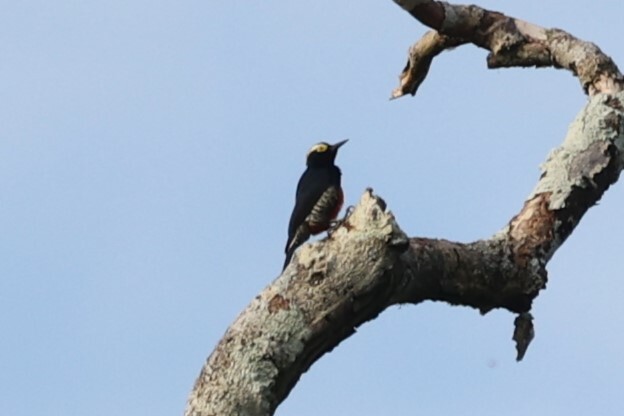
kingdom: Animalia
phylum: Chordata
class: Aves
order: Piciformes
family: Picidae
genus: Melanerpes
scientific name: Melanerpes cruentatus
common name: Yellow-tufted woodpecker
